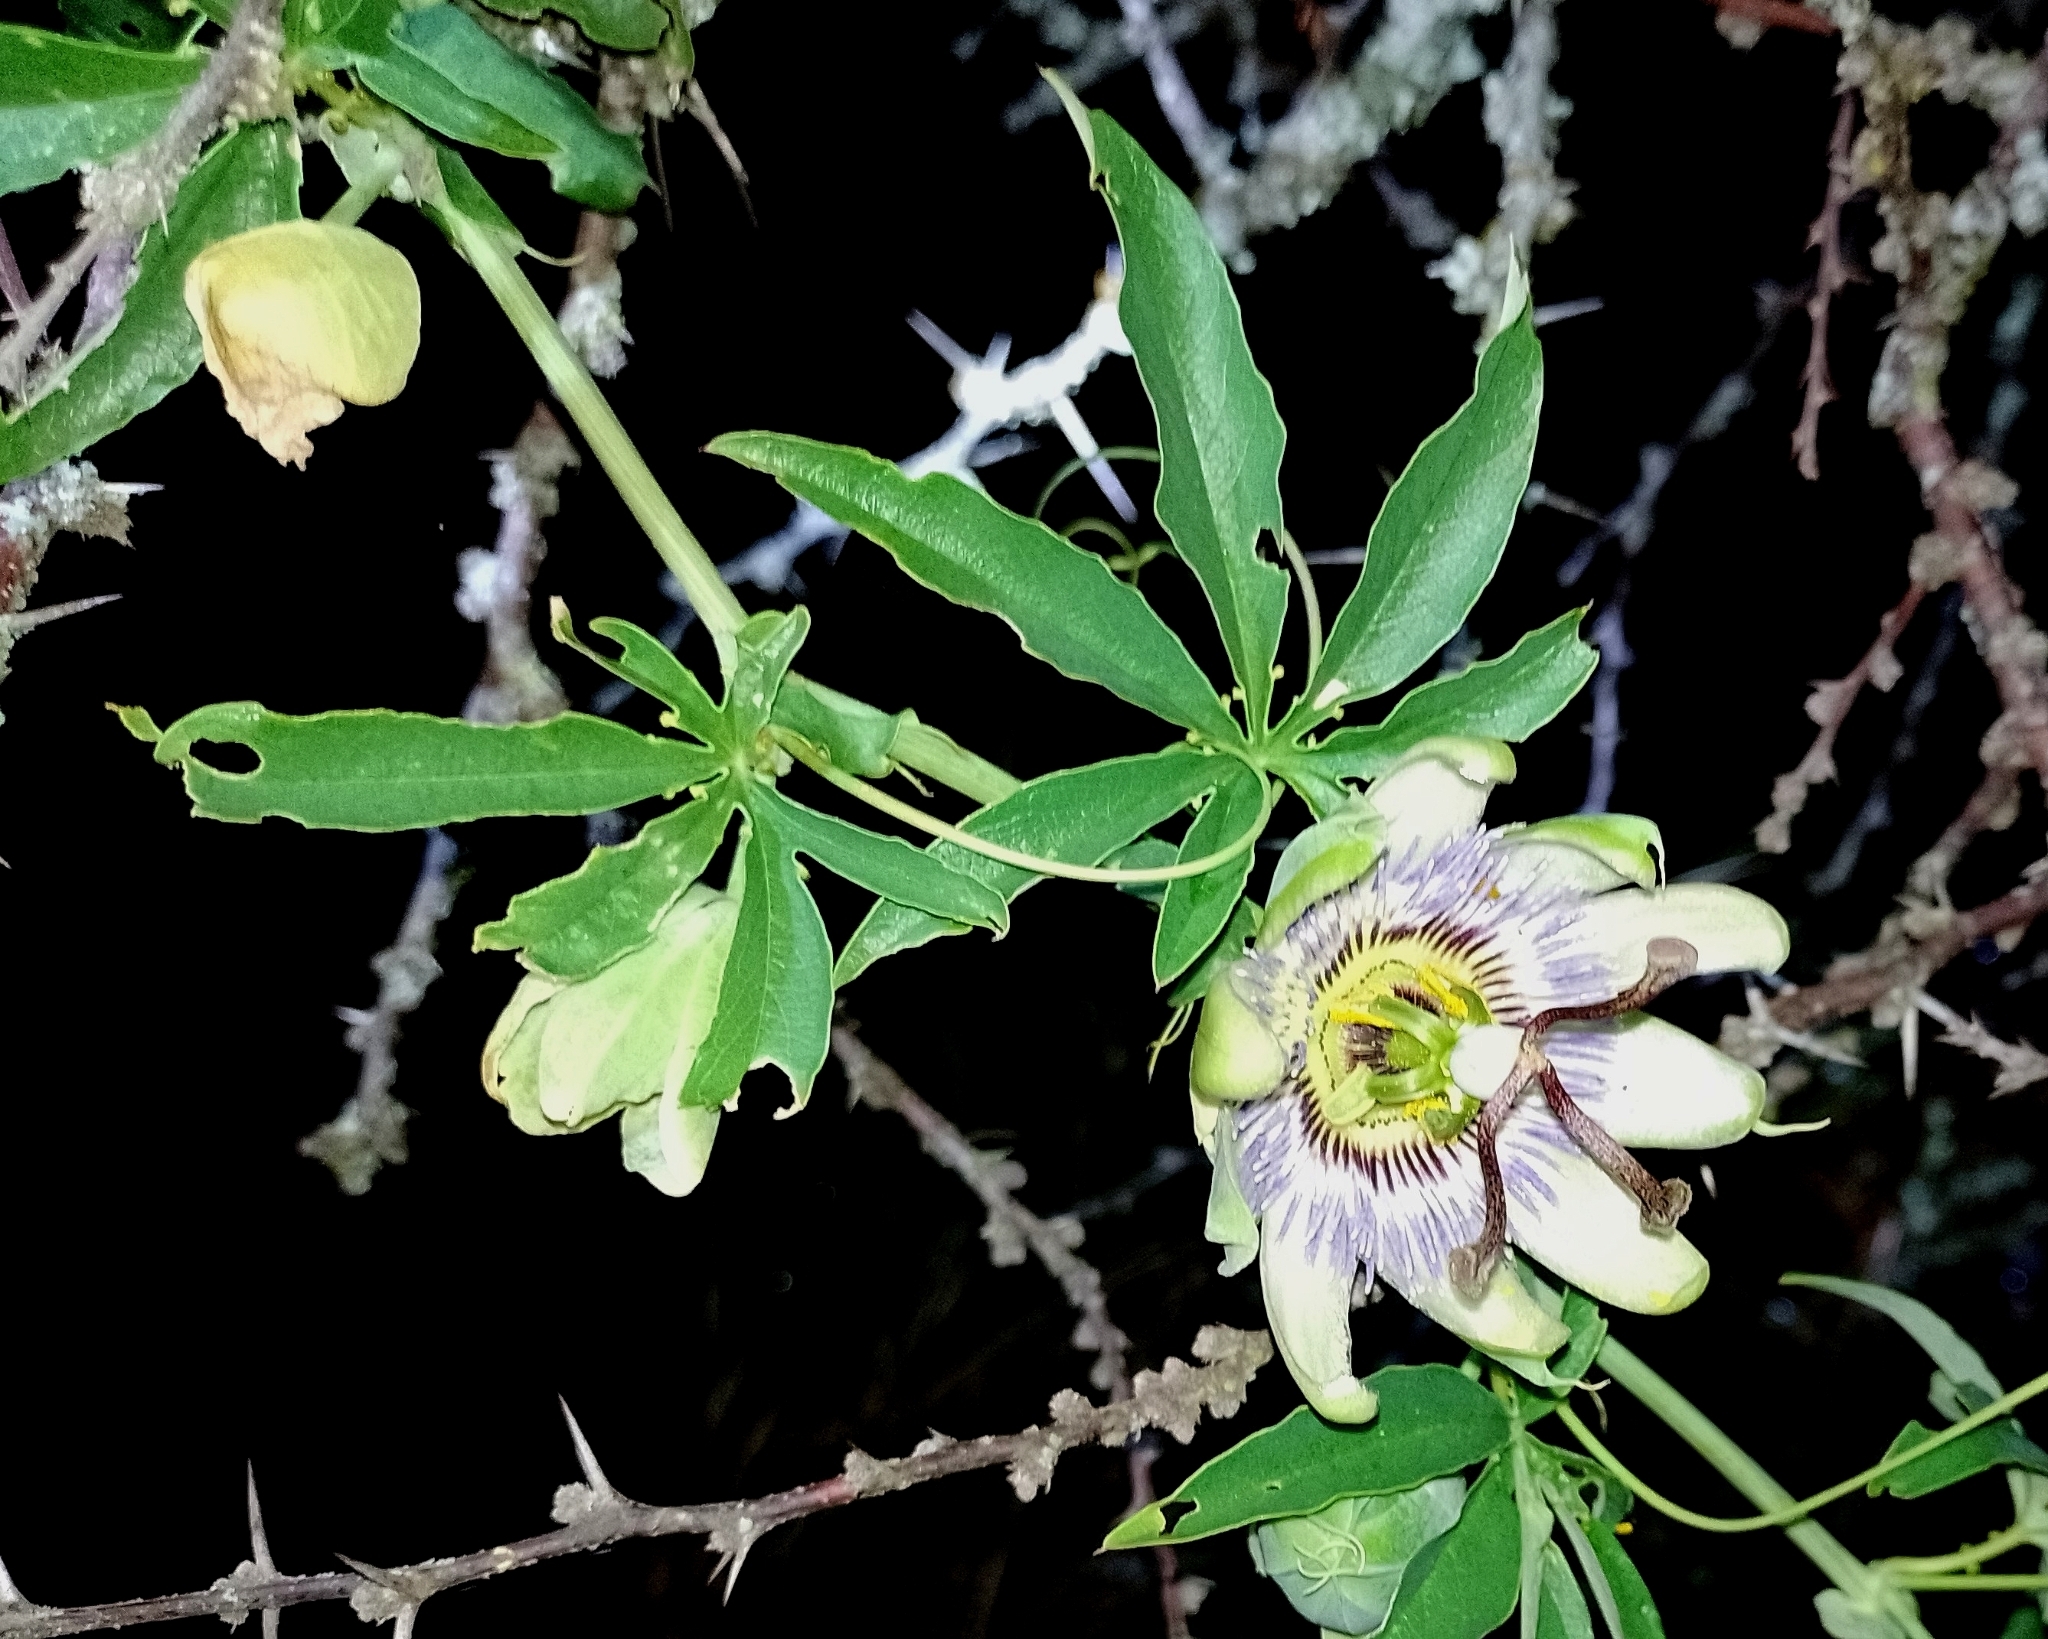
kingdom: Plantae
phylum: Tracheophyta
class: Magnoliopsida
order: Malpighiales
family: Passifloraceae
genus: Passiflora
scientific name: Passiflora caerulea
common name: Blue passionflower
